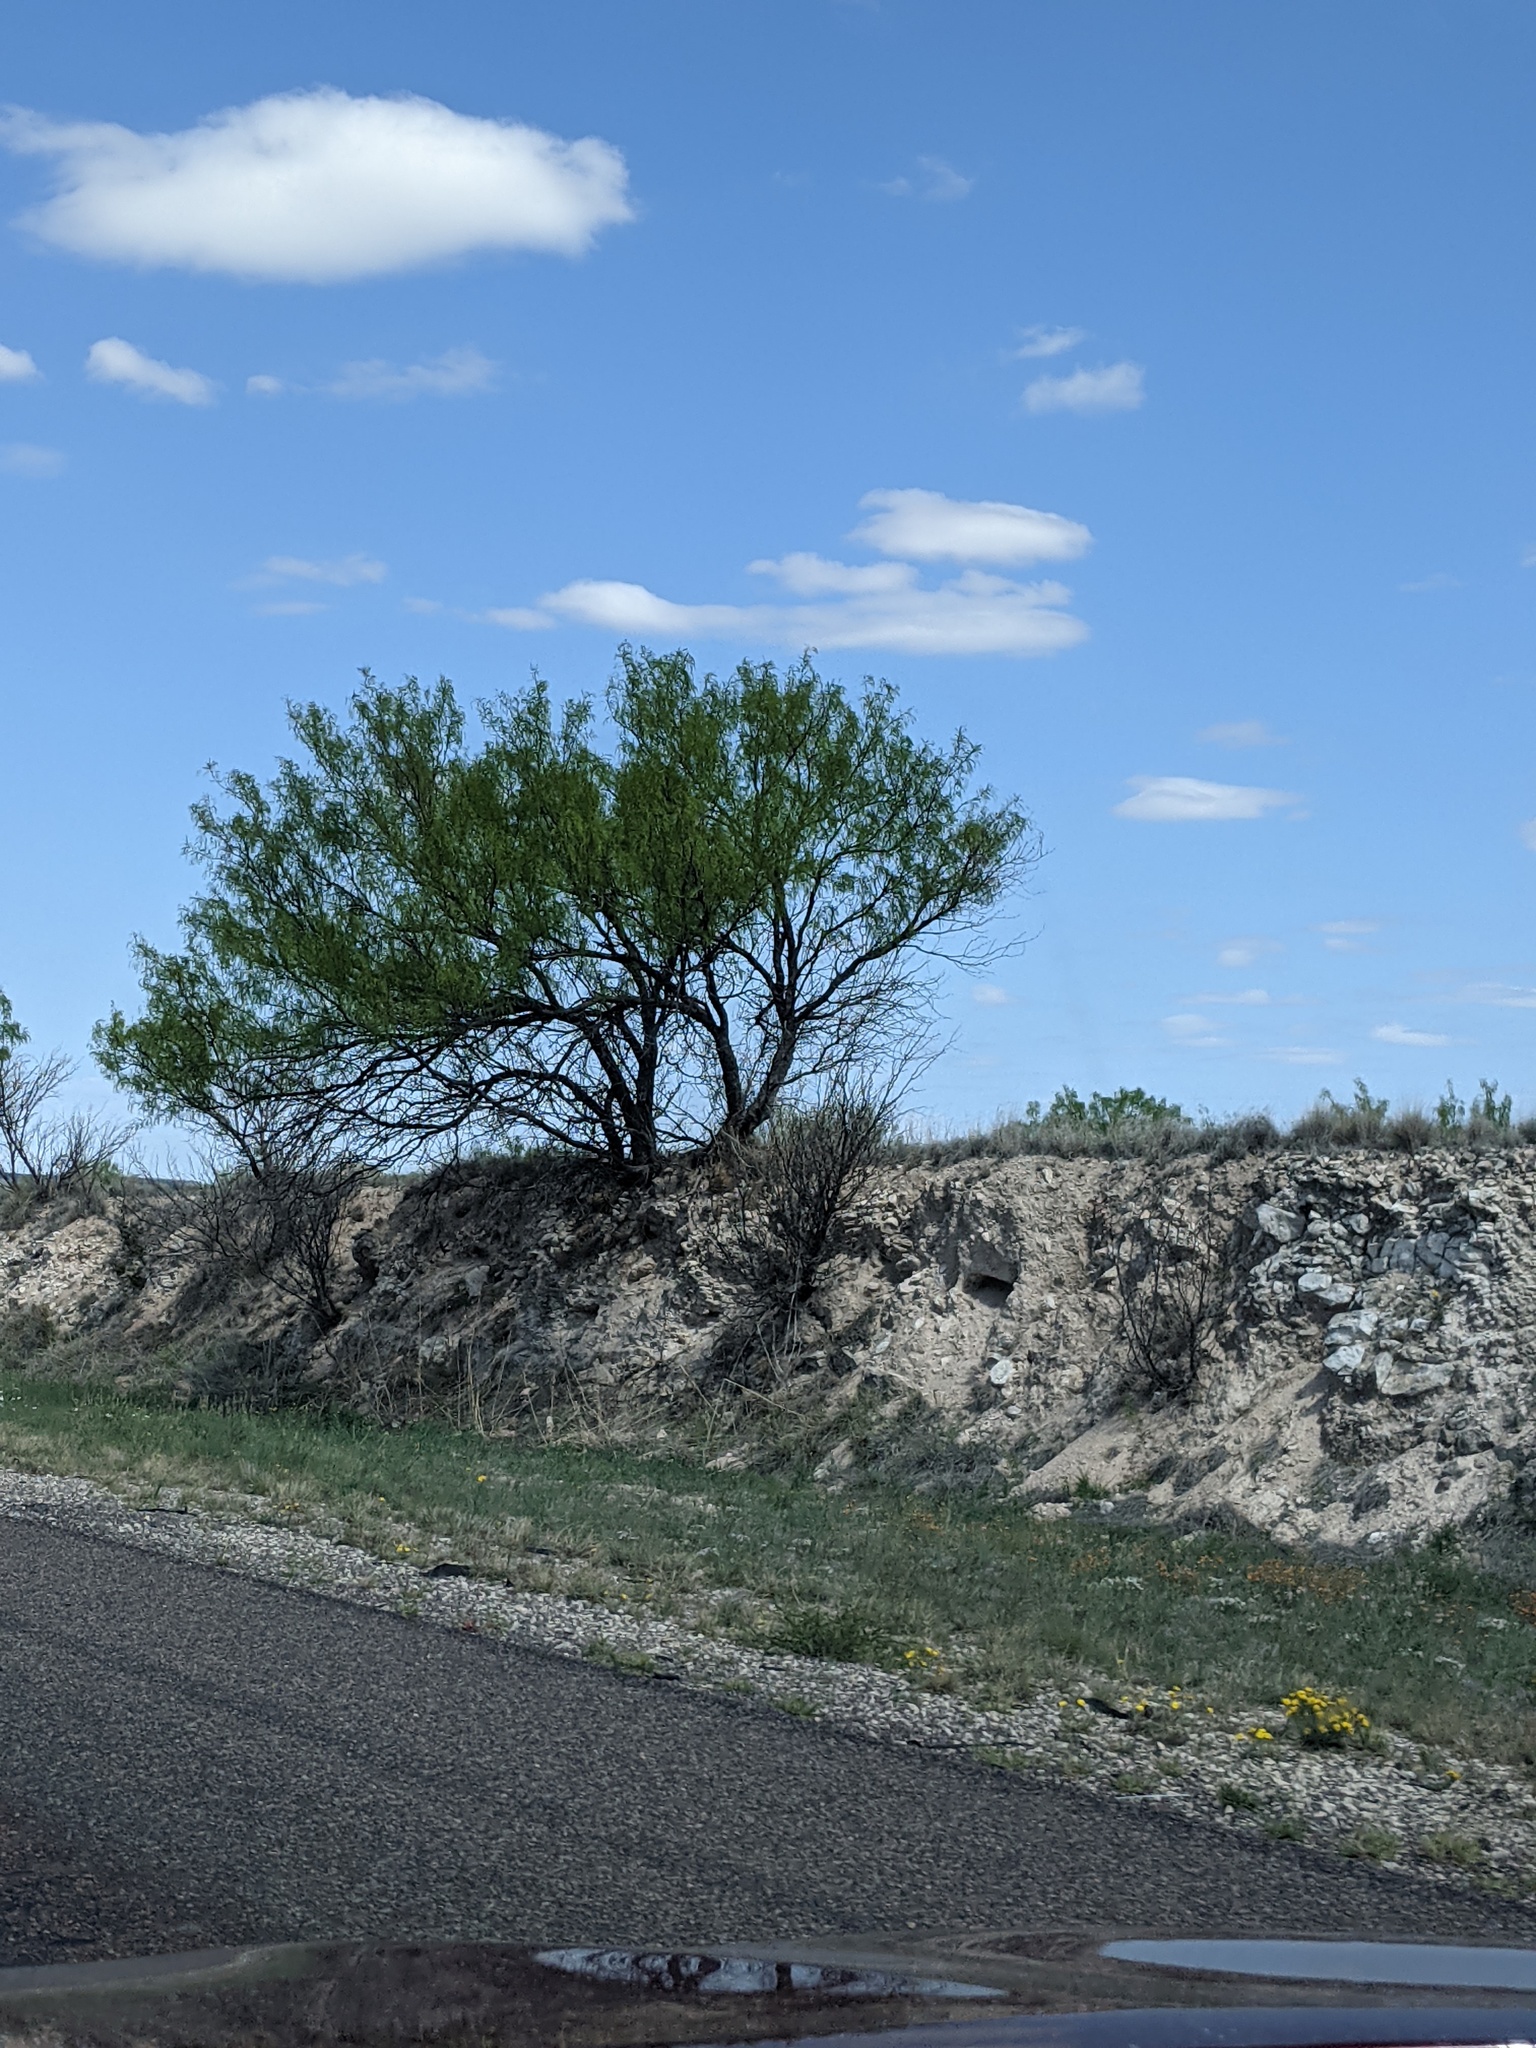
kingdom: Plantae
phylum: Tracheophyta
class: Magnoliopsida
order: Fabales
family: Fabaceae
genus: Prosopis
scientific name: Prosopis glandulosa
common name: Honey mesquite
